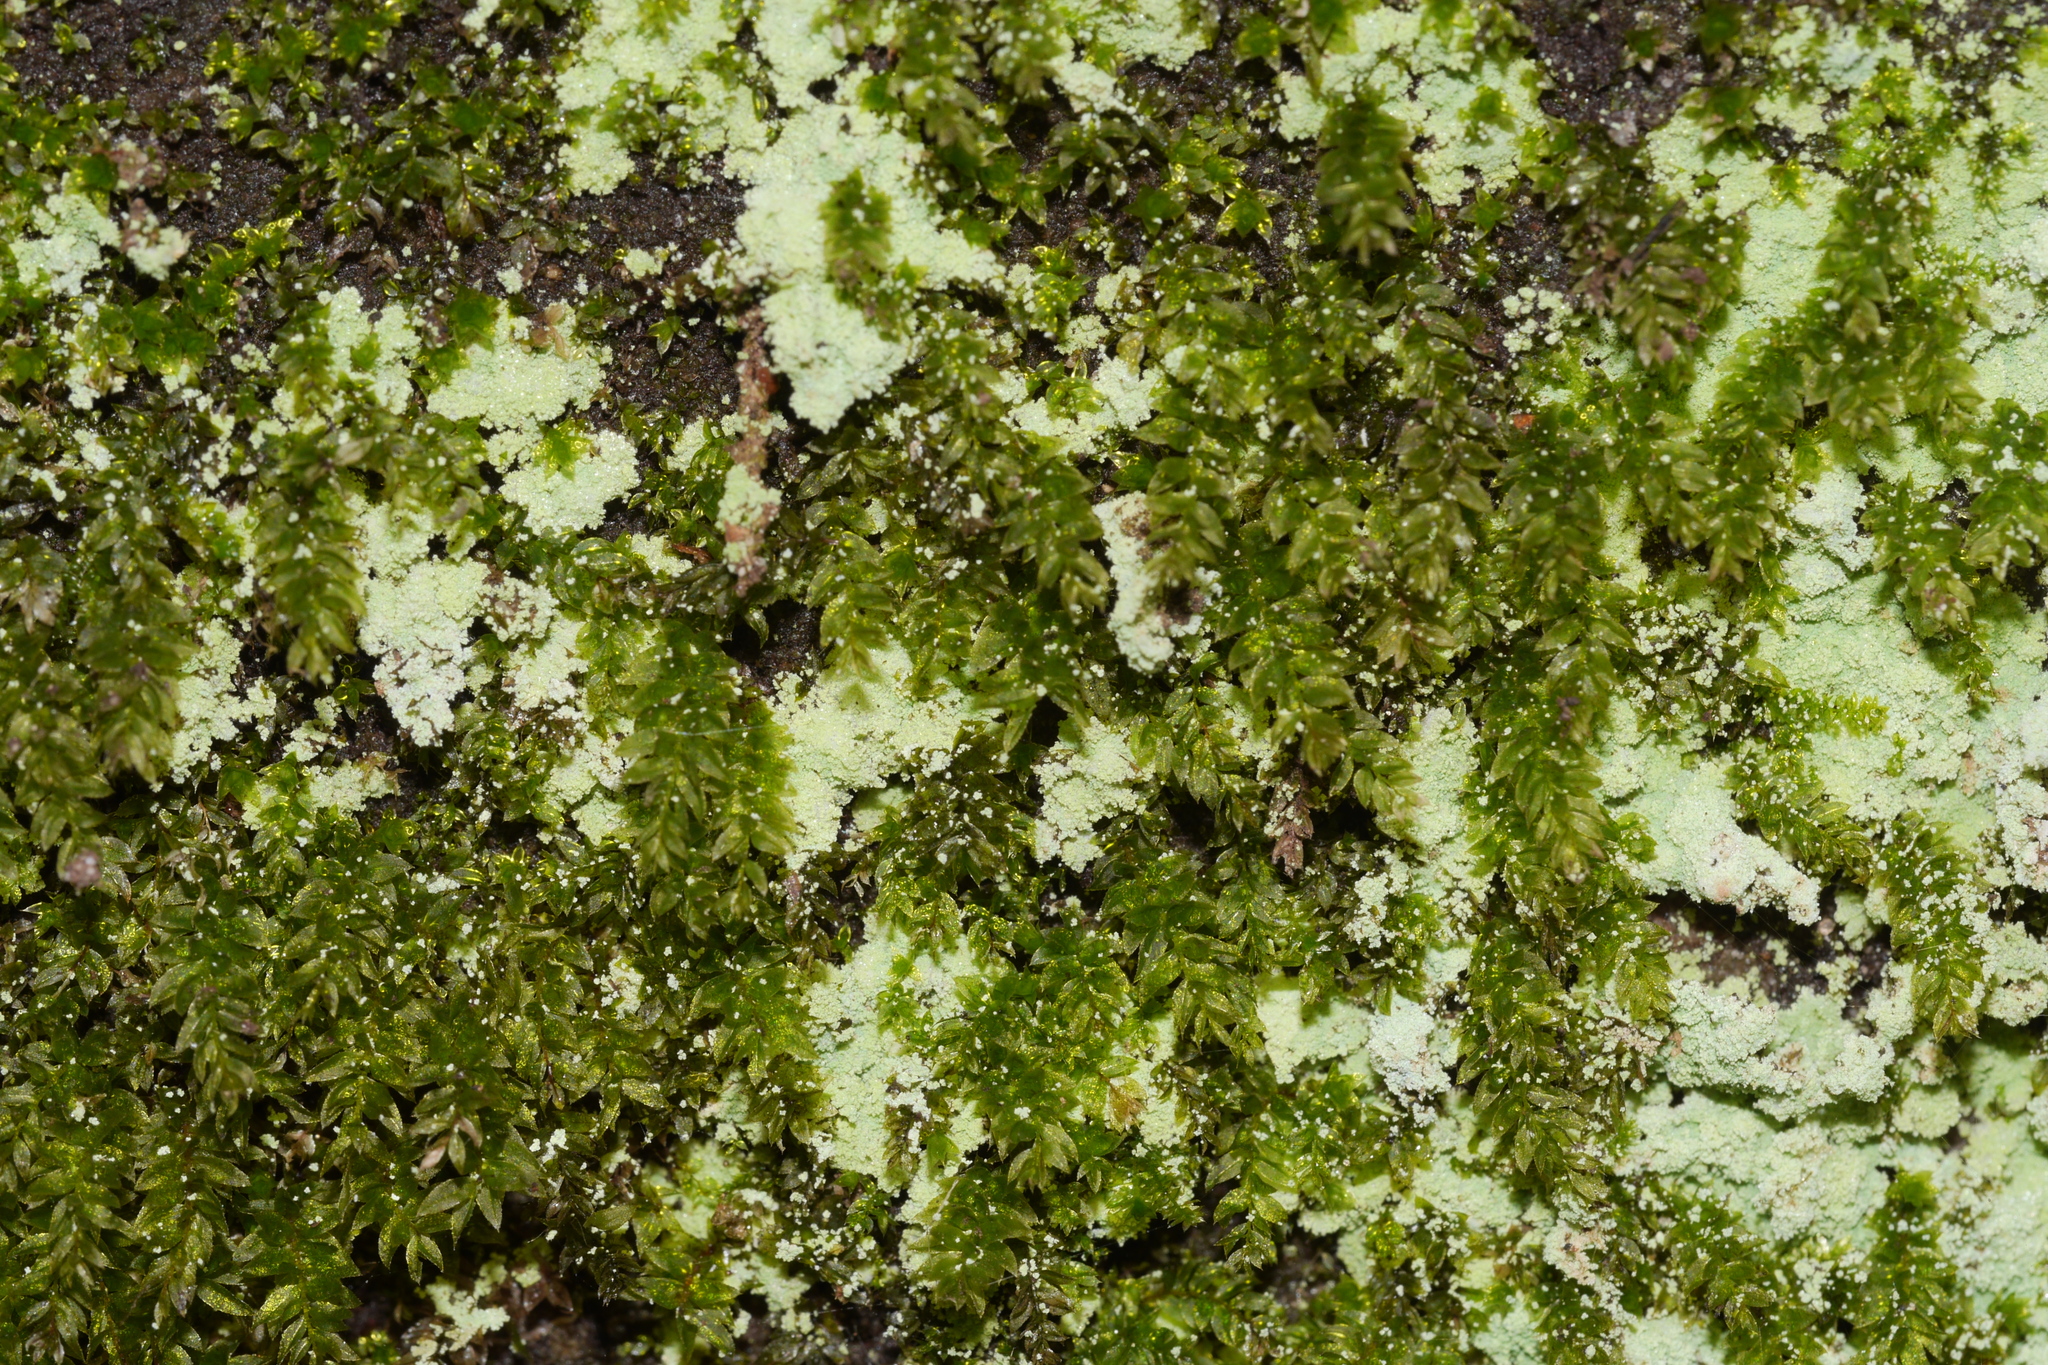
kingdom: Plantae
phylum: Bryophyta
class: Bryopsida
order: Bryales
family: Mniaceae
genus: Mnium
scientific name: Mnium hornum
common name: Swan's-neck leafy moss
